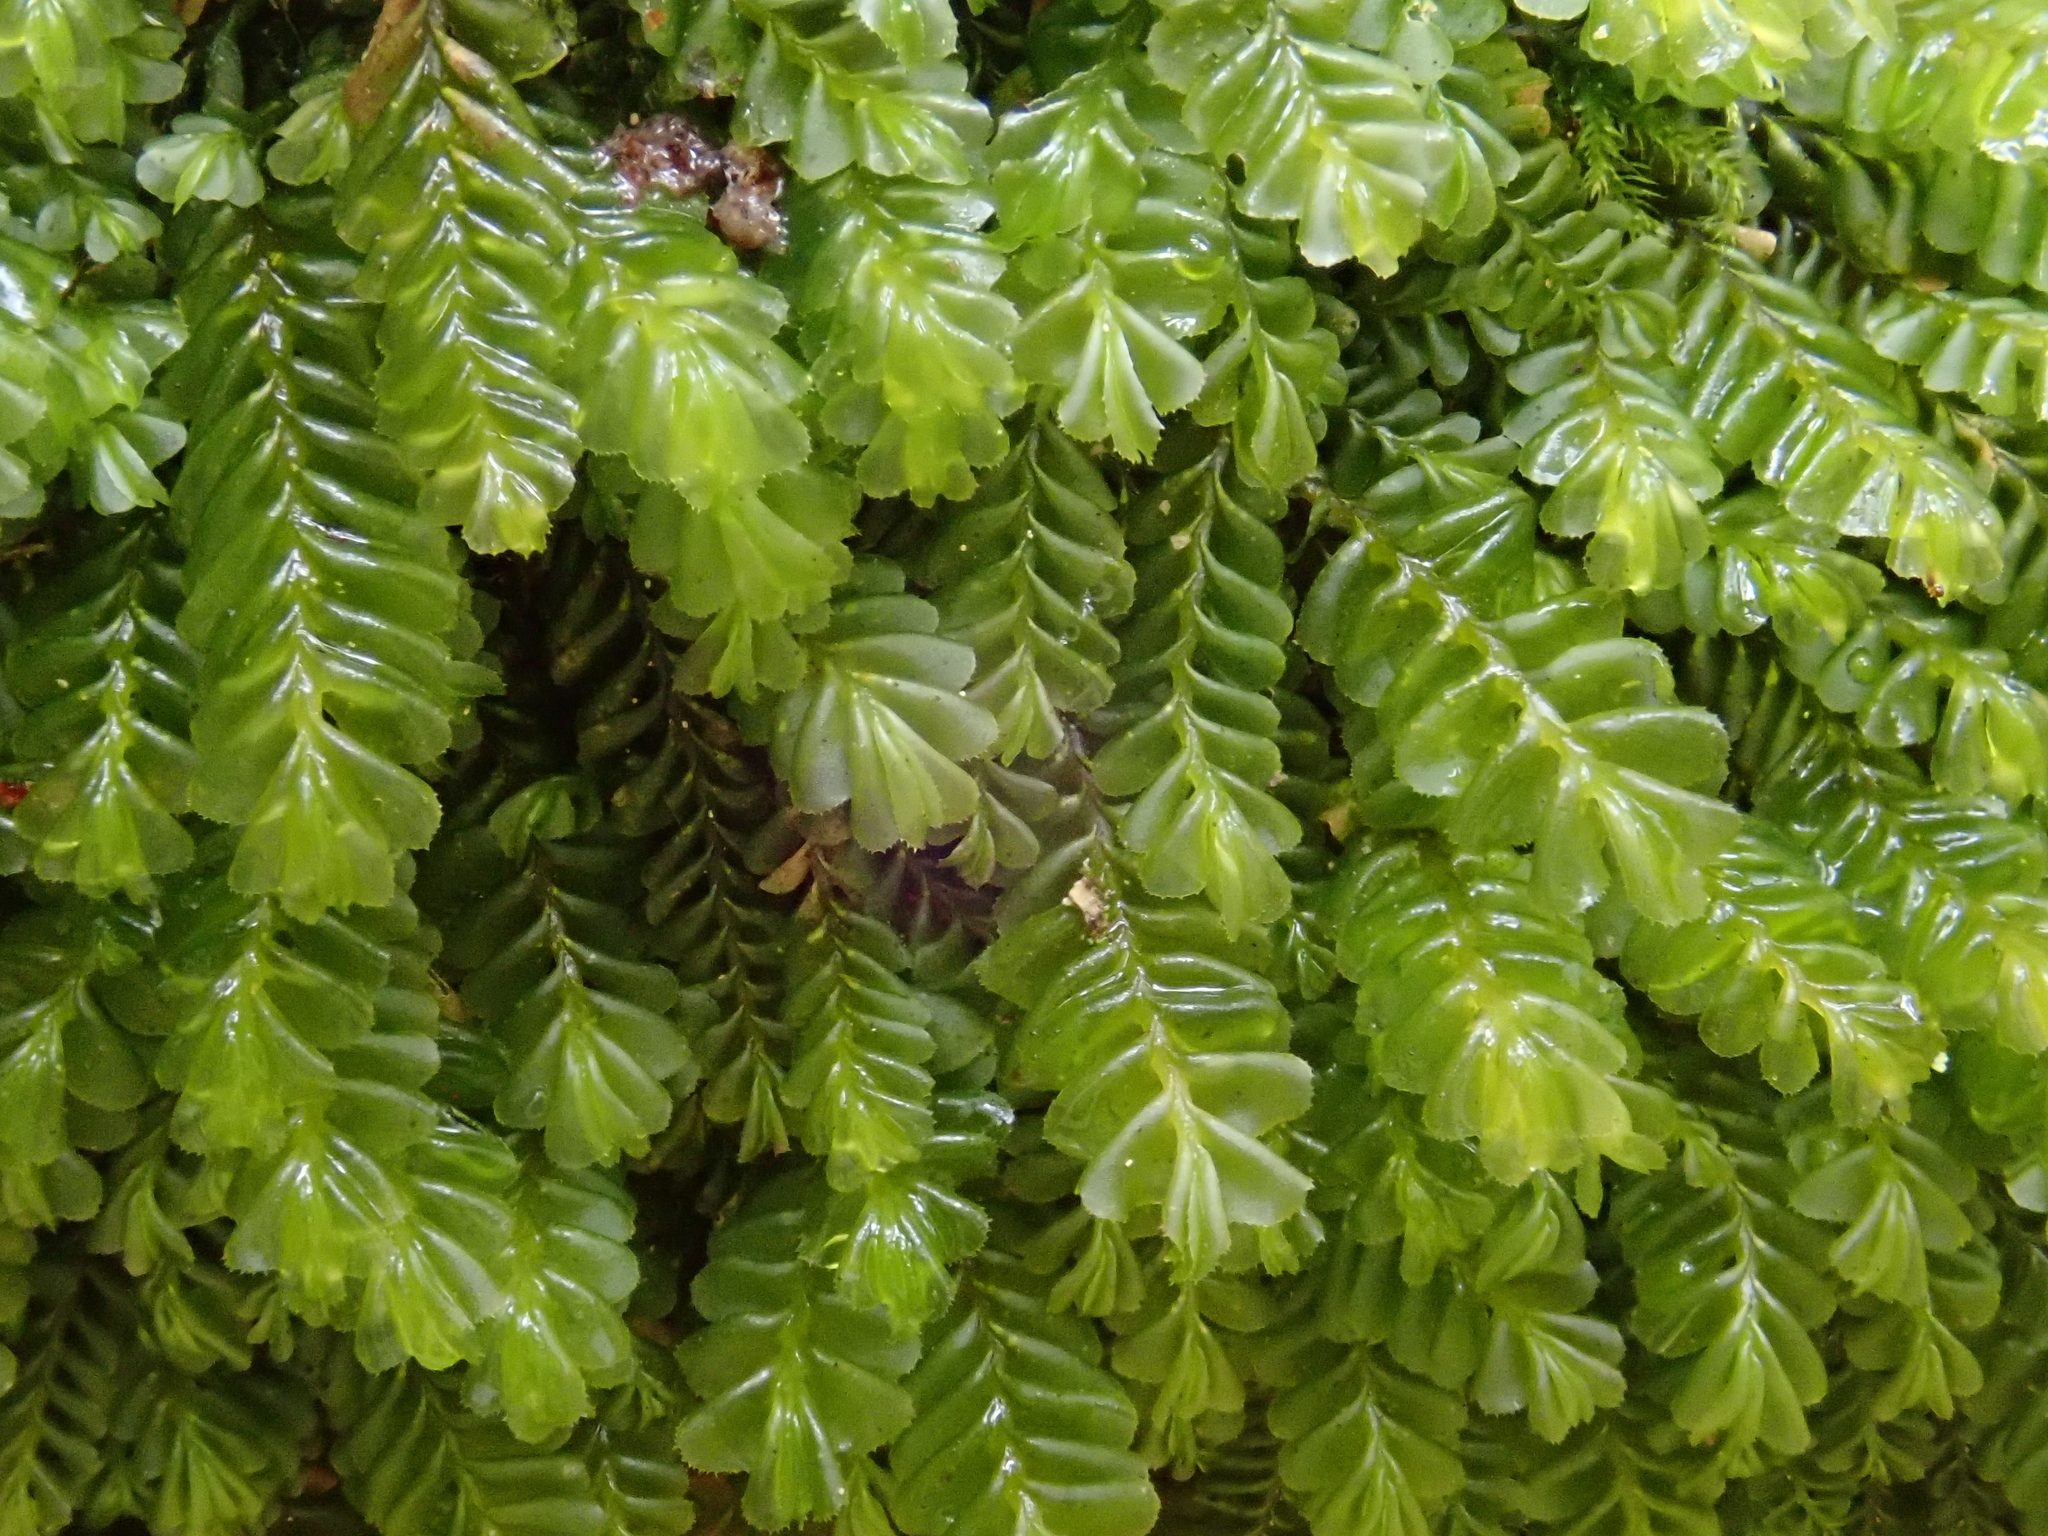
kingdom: Plantae
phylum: Marchantiophyta
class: Jungermanniopsida
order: Jungermanniales
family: Plagiochilaceae
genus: Plagiochila
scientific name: Plagiochila porelloides
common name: Lesser featherwort
